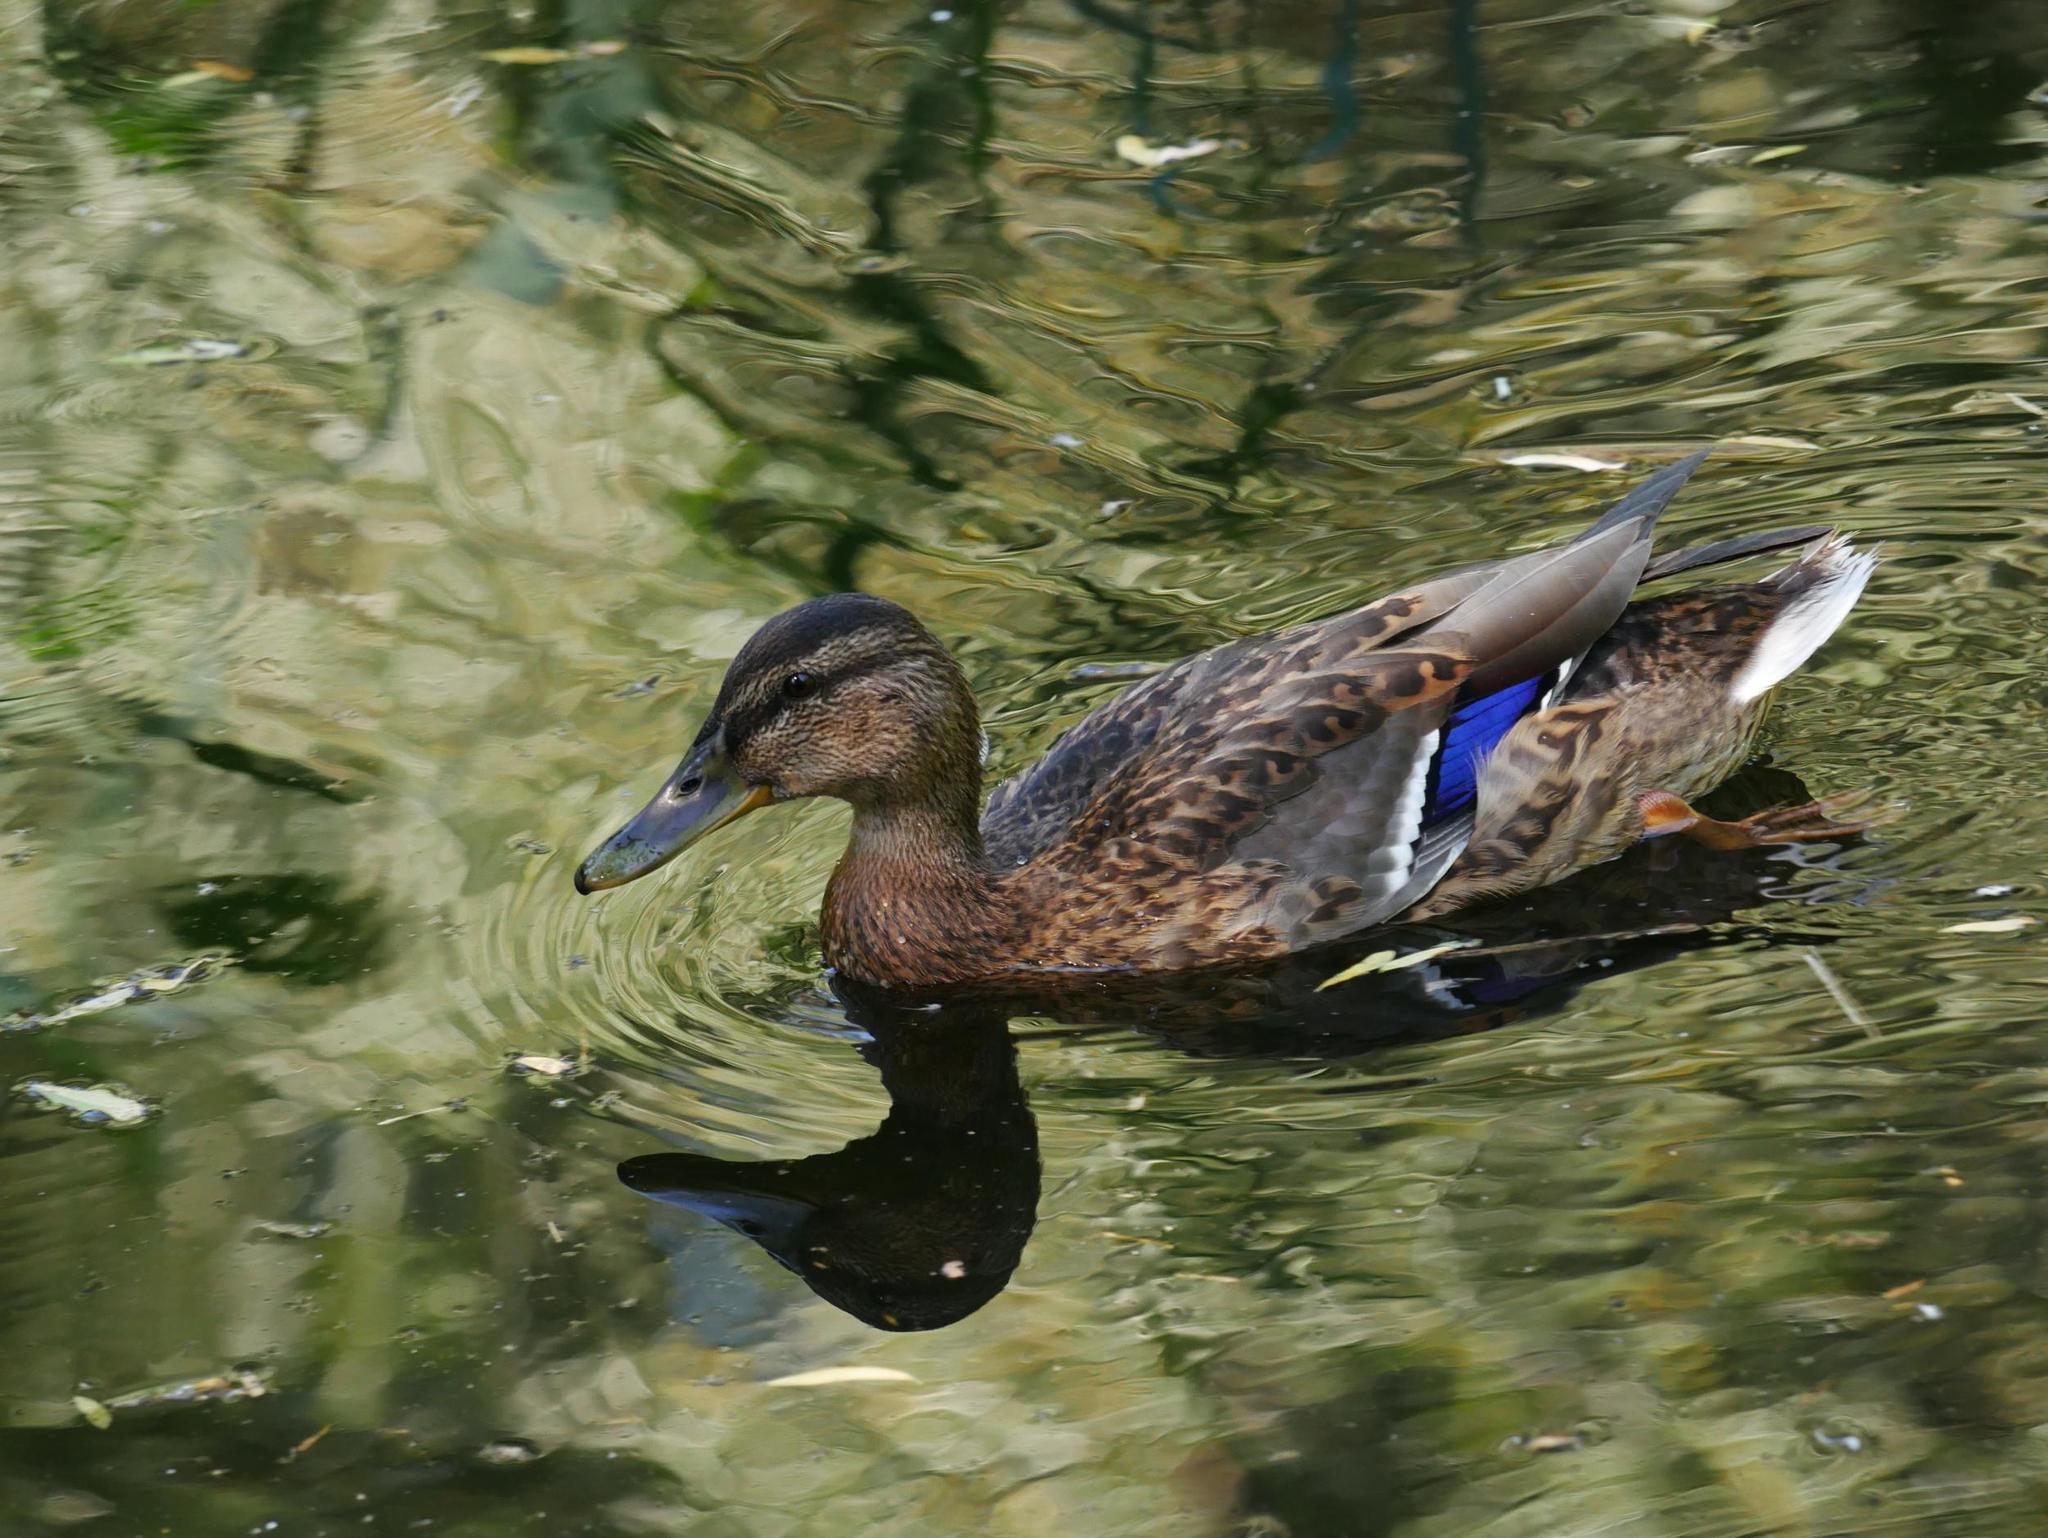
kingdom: Animalia
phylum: Chordata
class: Aves
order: Anseriformes
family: Anatidae
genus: Anas
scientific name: Anas platyrhynchos
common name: Mallard
